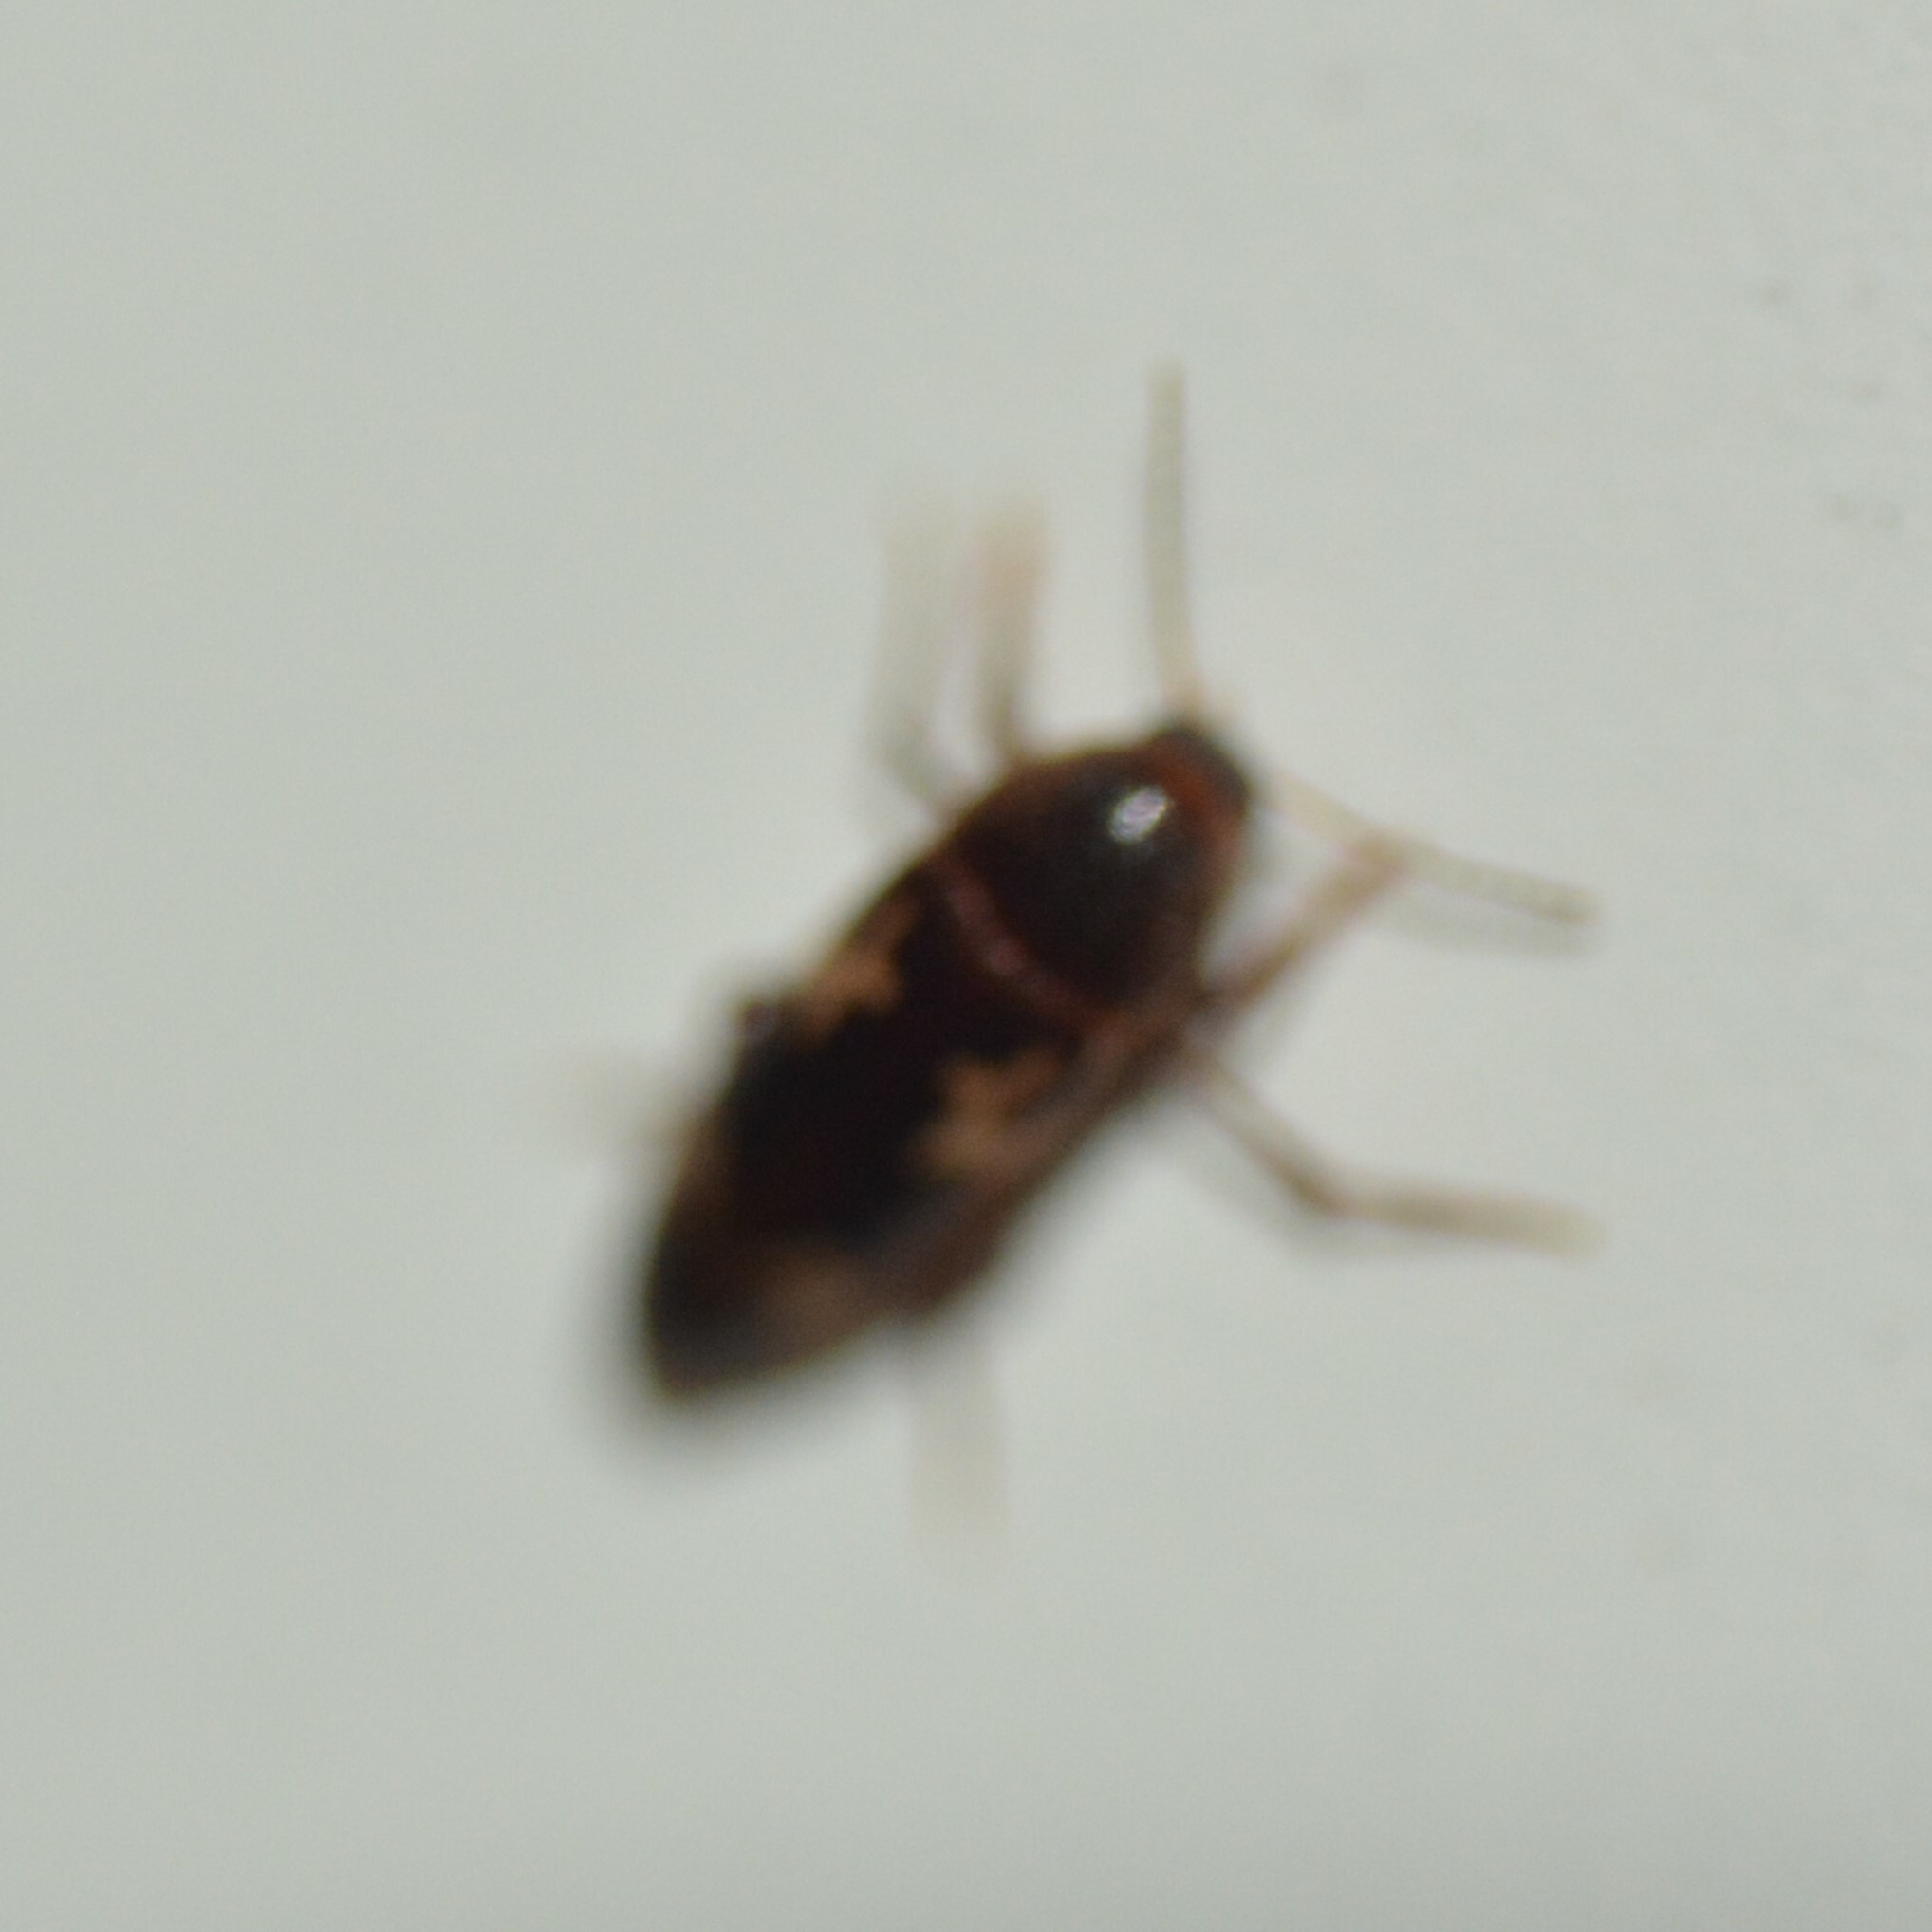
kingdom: Animalia
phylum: Arthropoda
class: Insecta
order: Coleoptera
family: Melandryidae
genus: Dircaea
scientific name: Dircaea liturata
